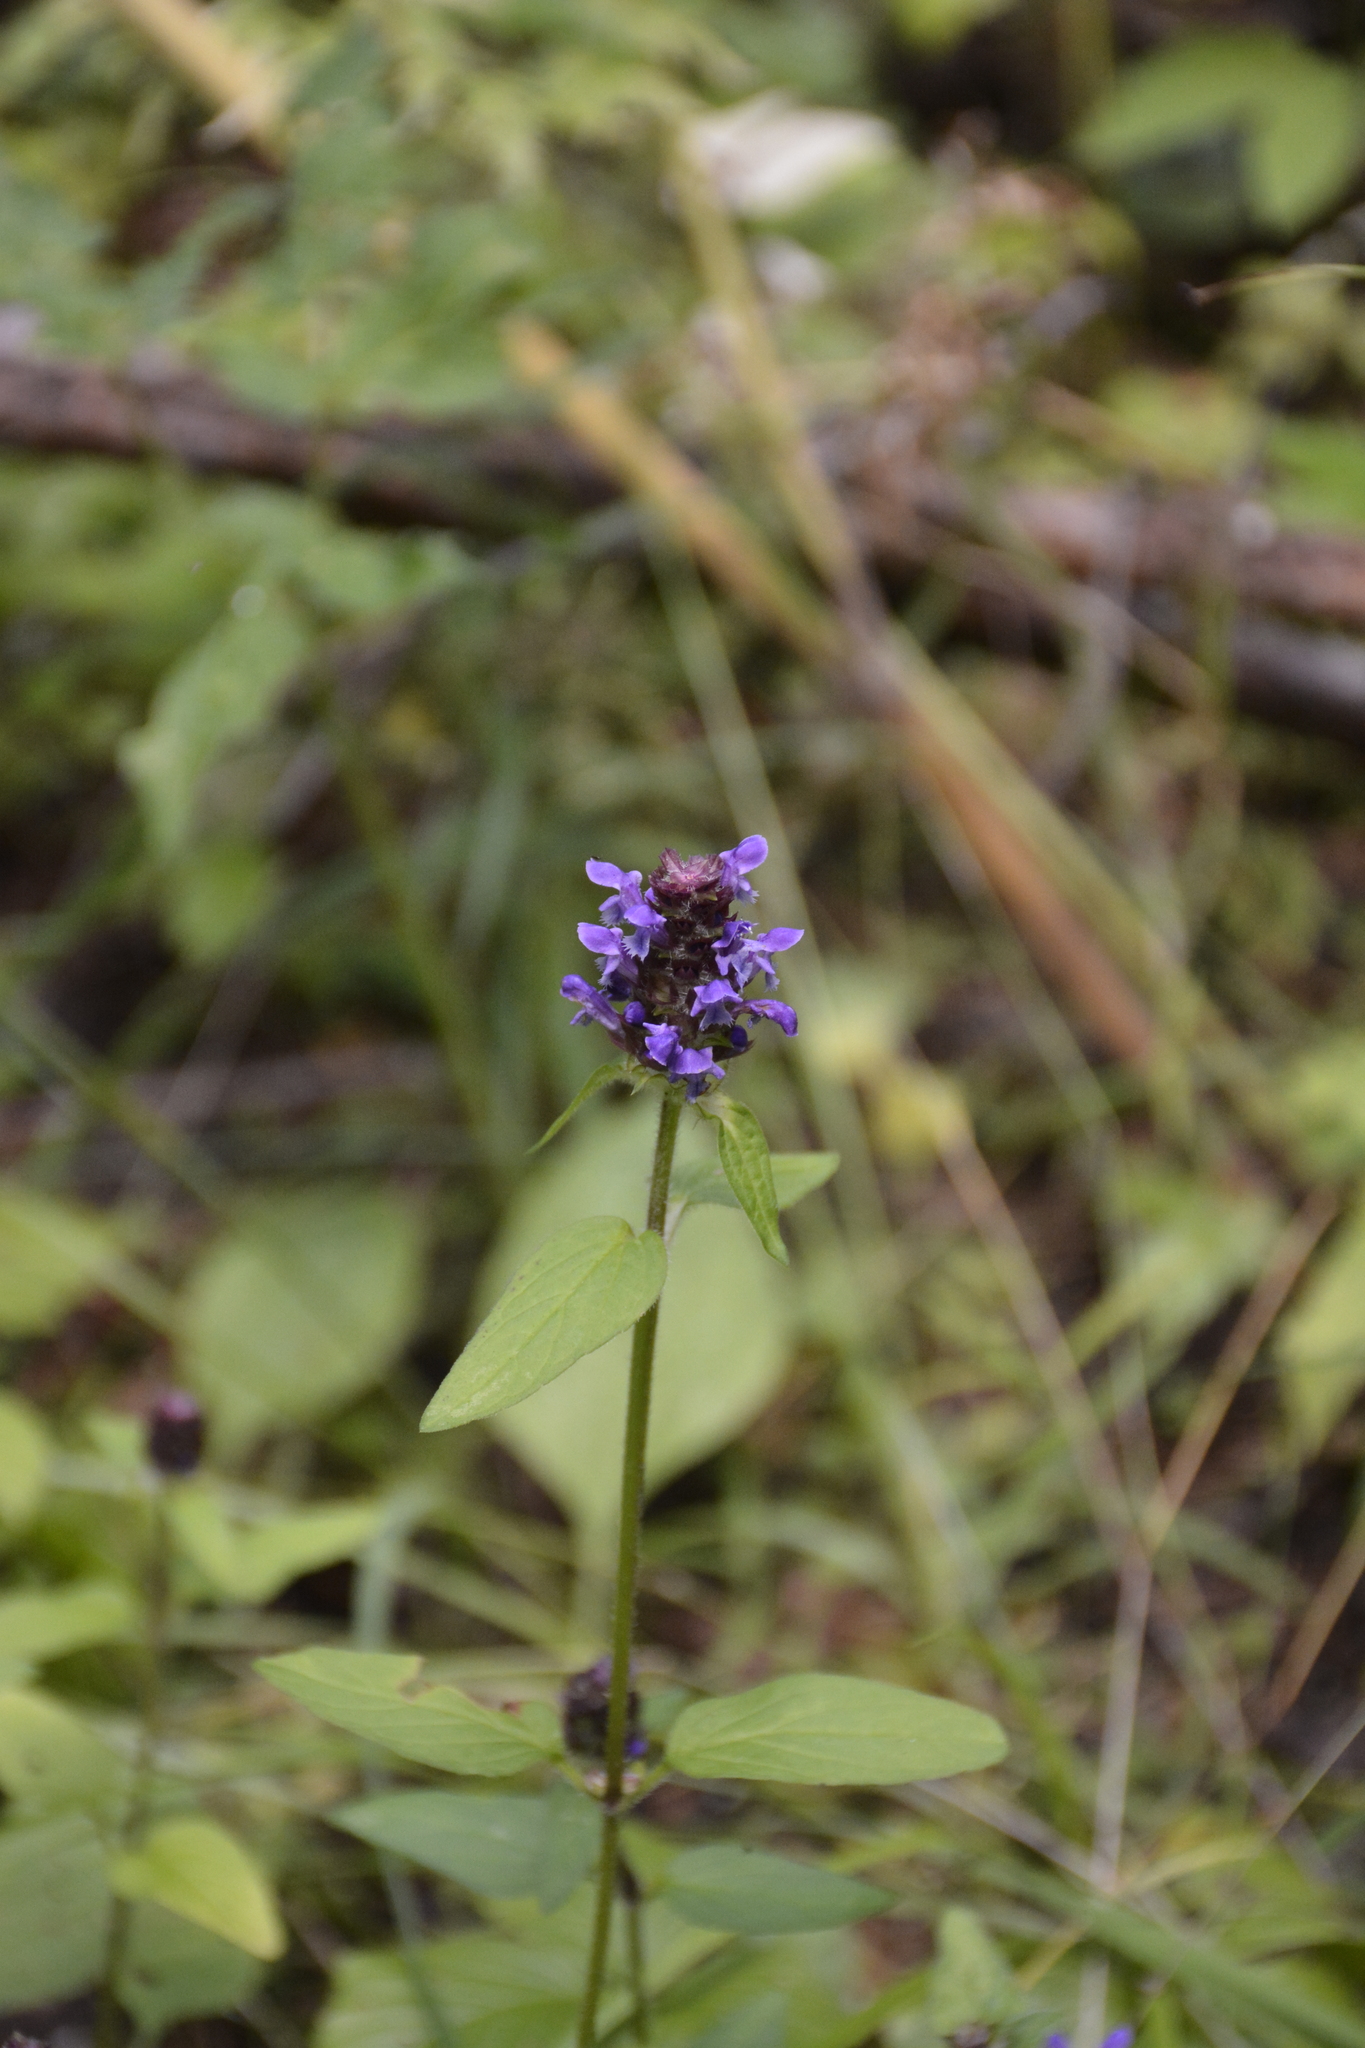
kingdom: Plantae
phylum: Tracheophyta
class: Magnoliopsida
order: Lamiales
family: Lamiaceae
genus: Prunella
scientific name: Prunella vulgaris
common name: Heal-all
